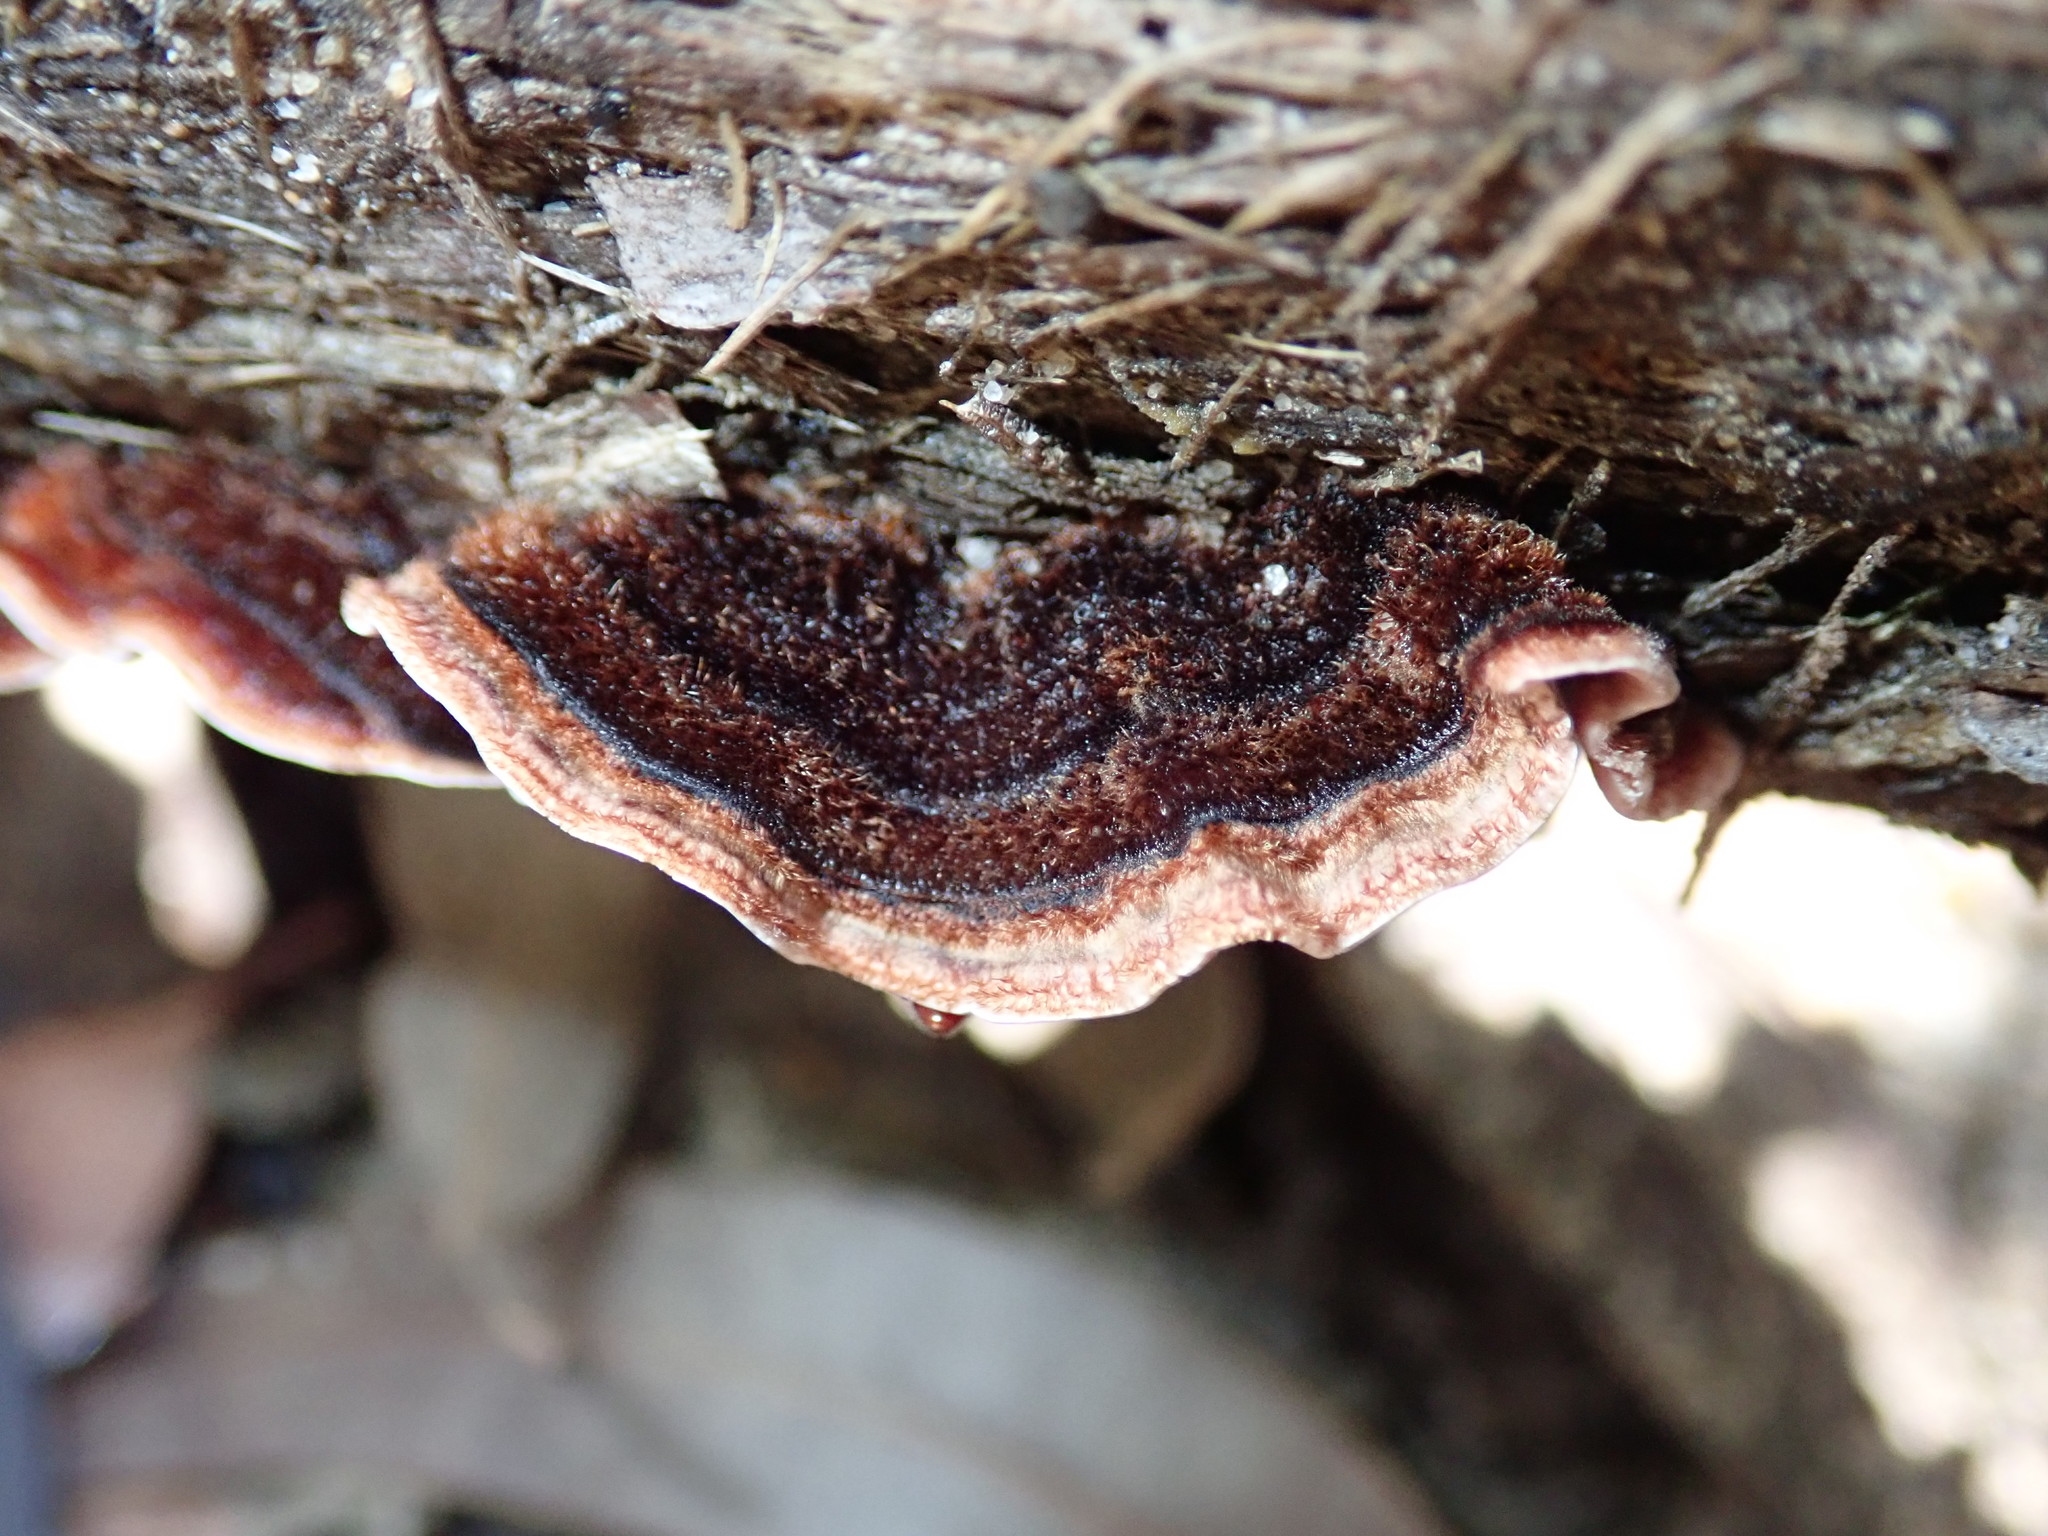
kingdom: Fungi
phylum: Basidiomycota
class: Agaricomycetes
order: Russulales
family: Stereaceae
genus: Xylobolus
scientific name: Xylobolus illudens
